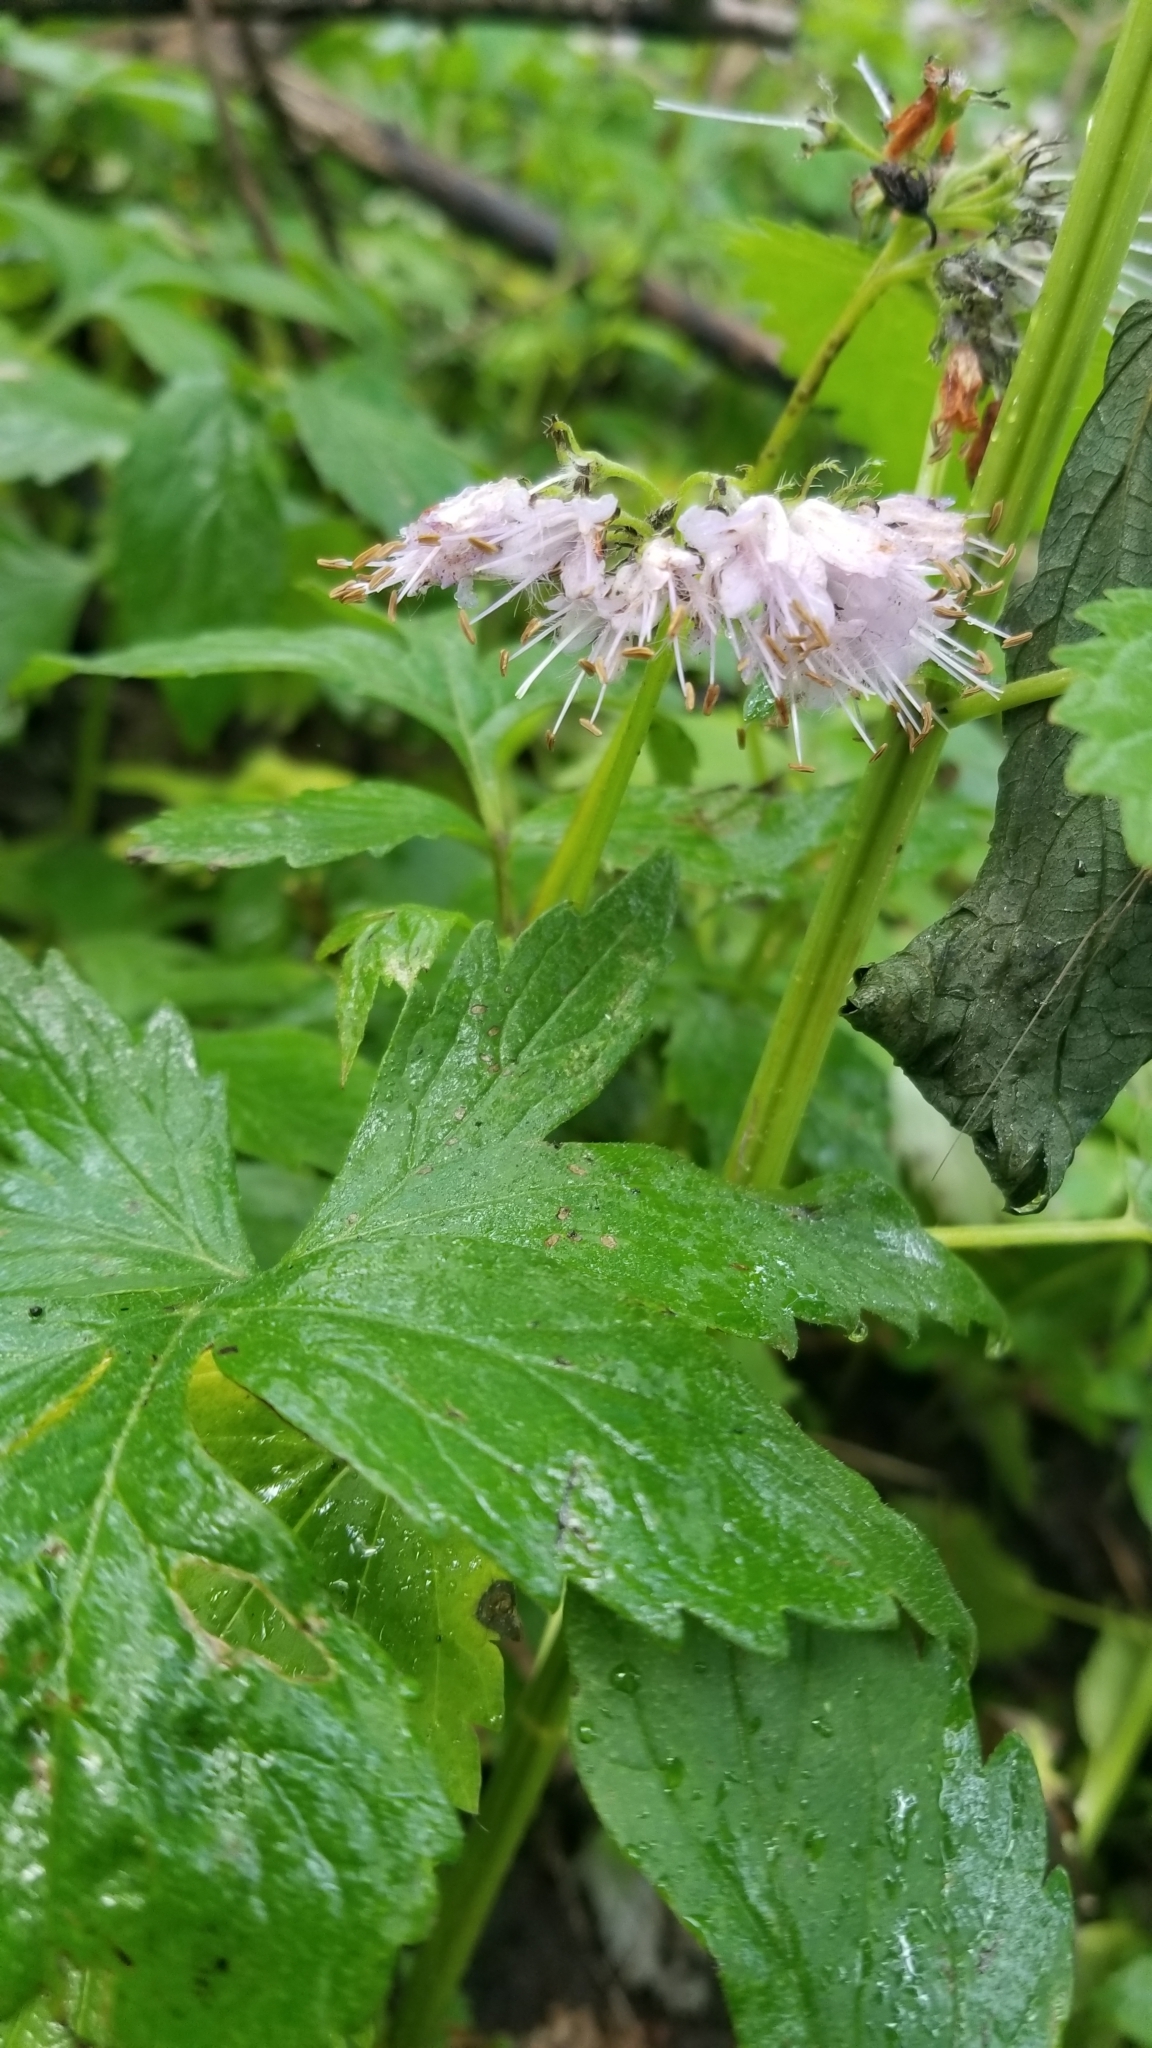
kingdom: Plantae
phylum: Tracheophyta
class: Magnoliopsida
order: Boraginales
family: Hydrophyllaceae
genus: Hydrophyllum
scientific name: Hydrophyllum virginianum
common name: Virginia waterleaf
